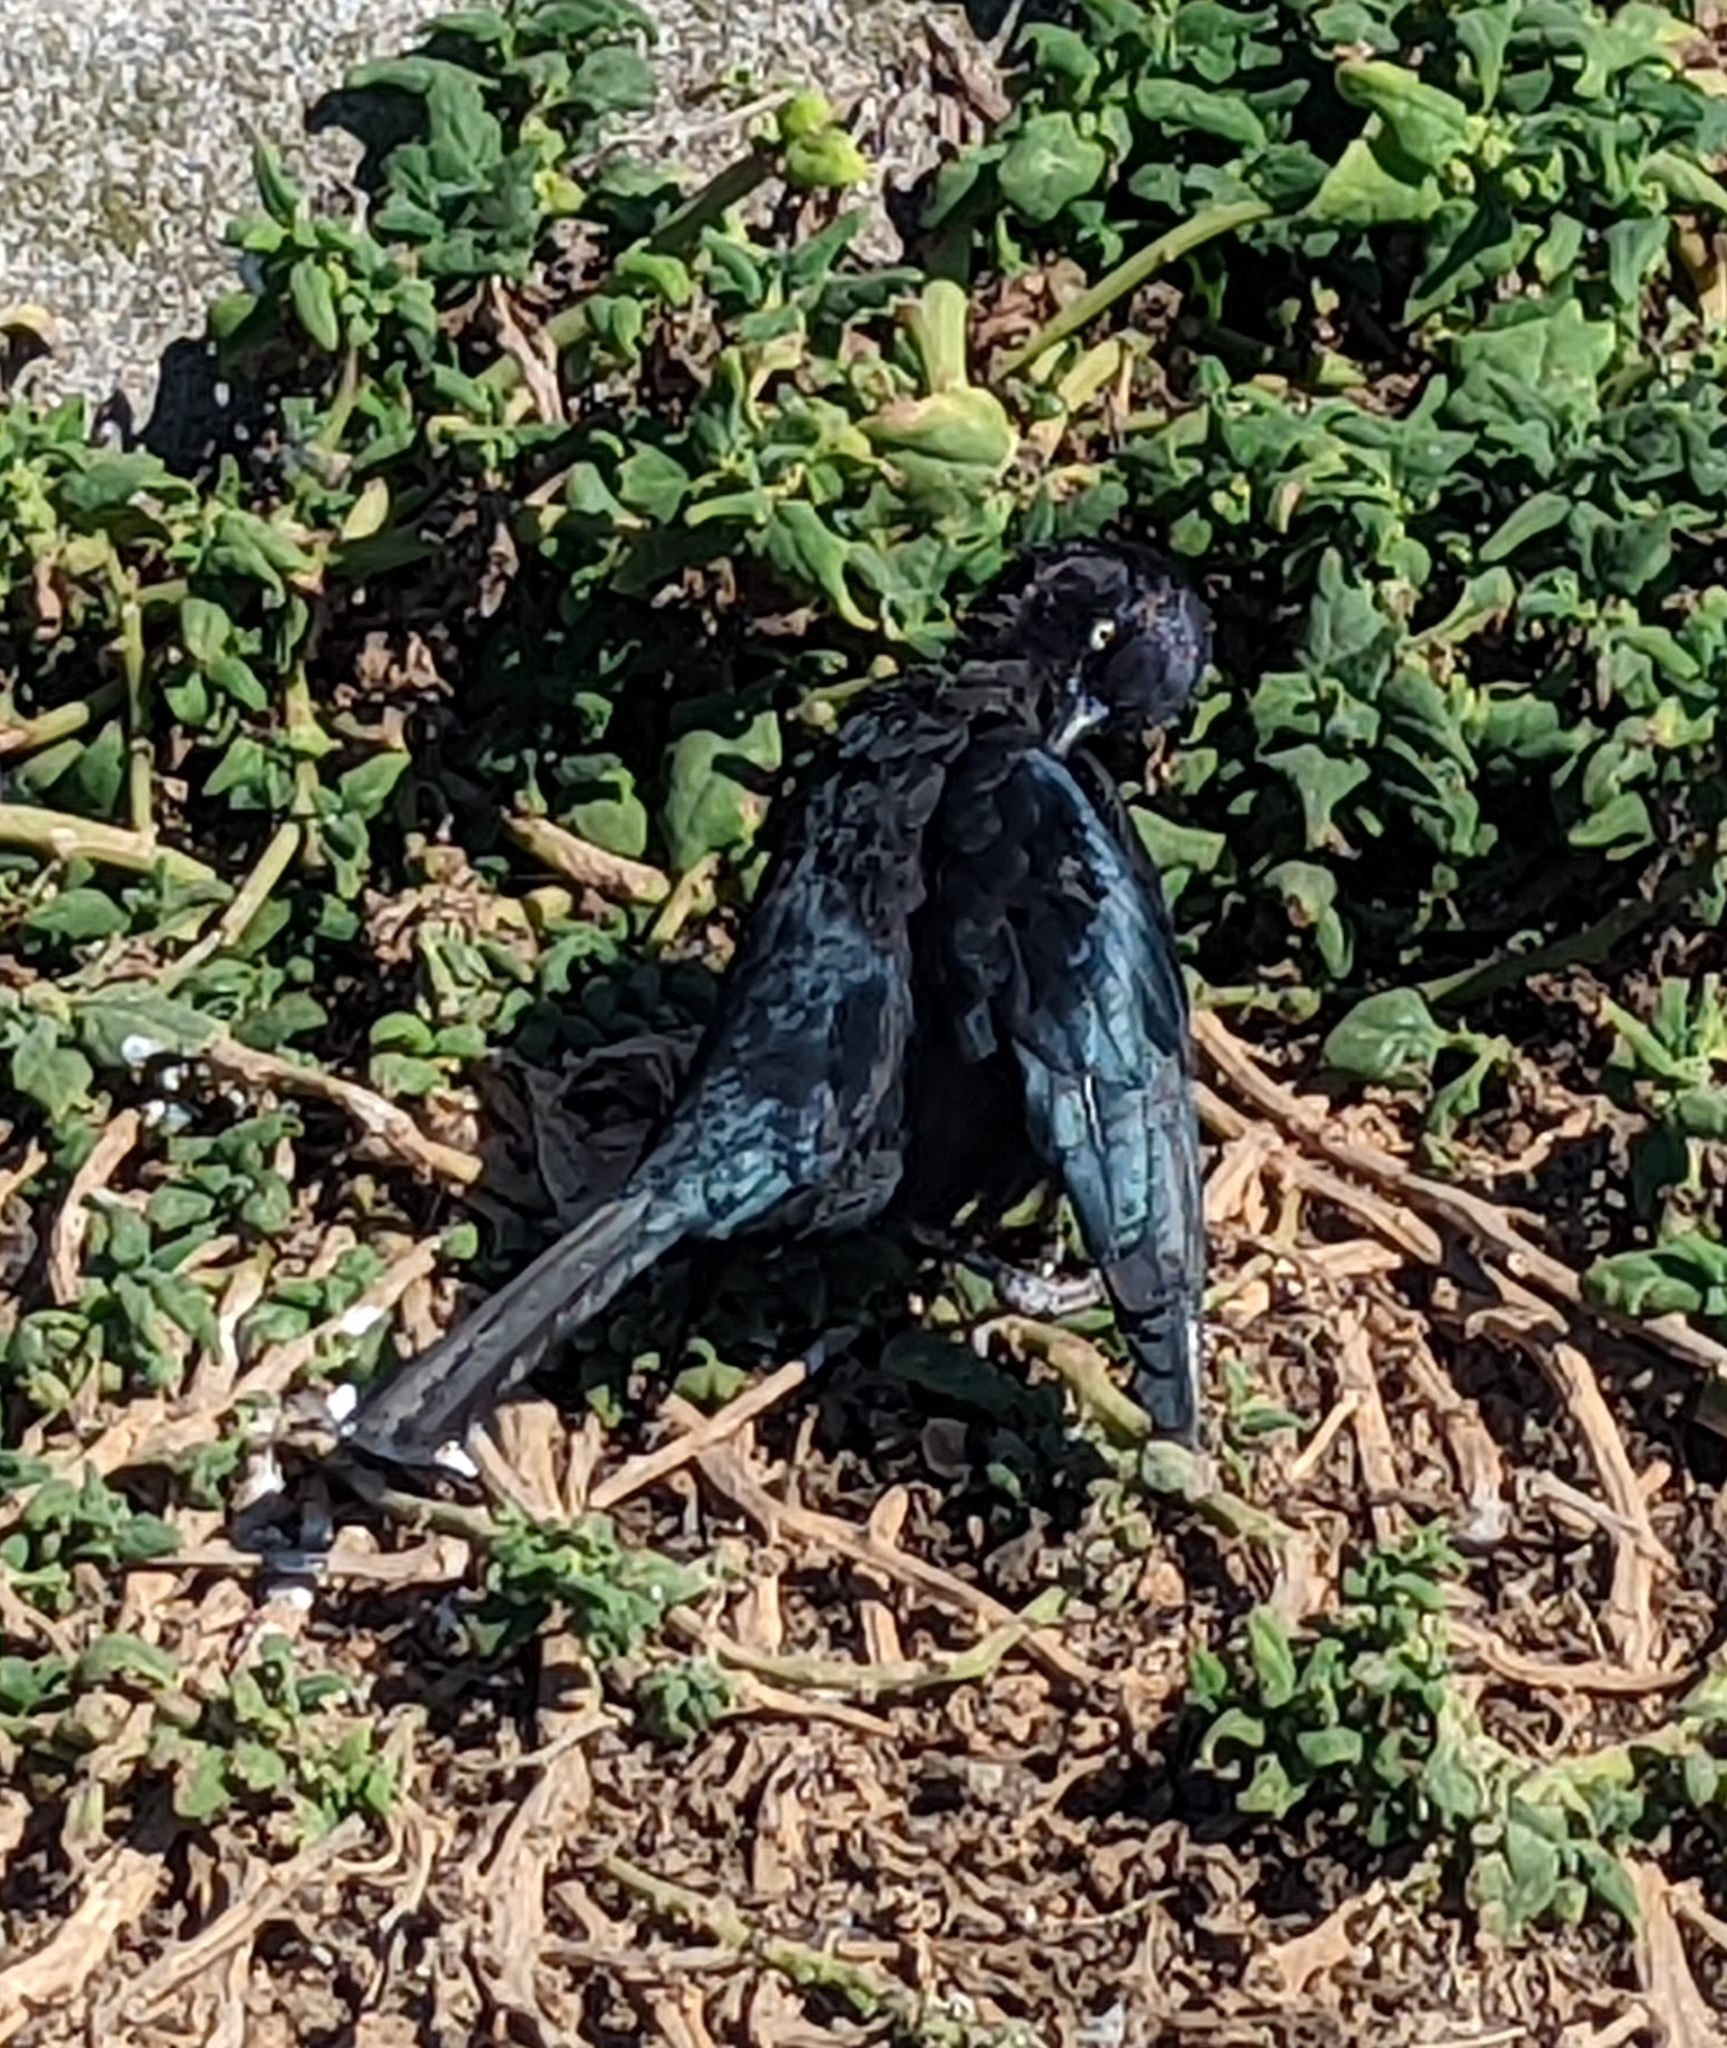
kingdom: Animalia
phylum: Chordata
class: Aves
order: Passeriformes
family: Icteridae
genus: Euphagus
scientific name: Euphagus cyanocephalus
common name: Brewer's blackbird
